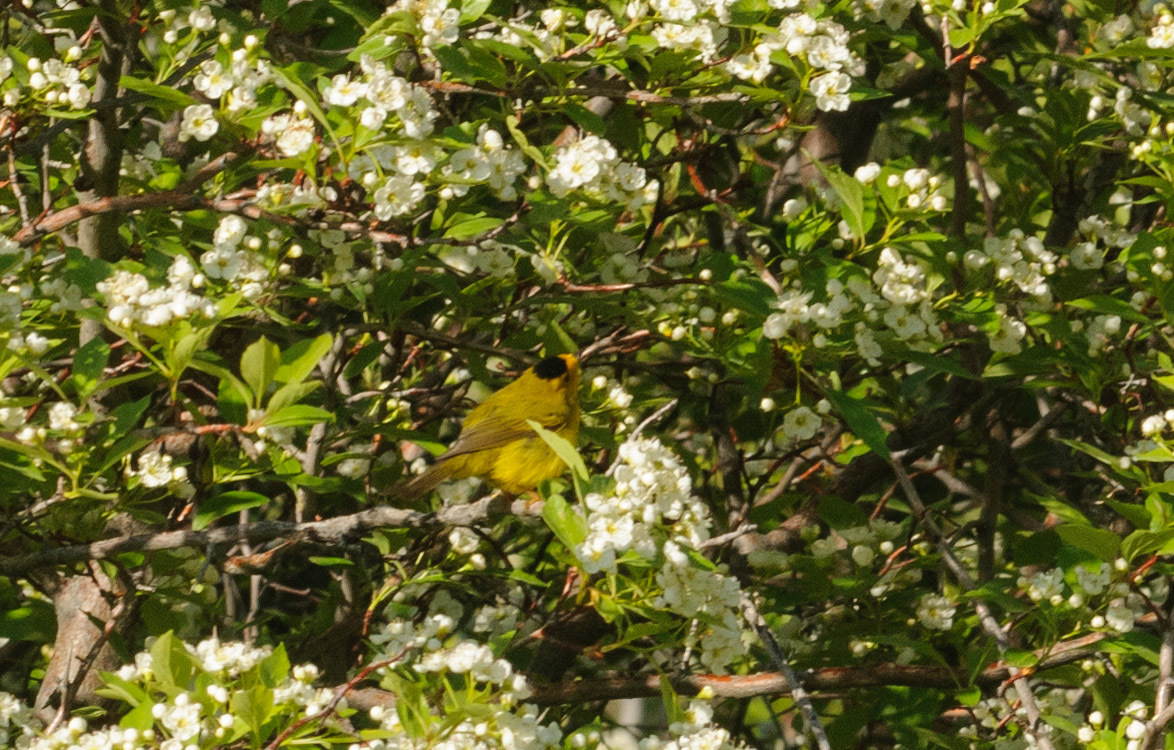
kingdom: Animalia
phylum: Chordata
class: Aves
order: Passeriformes
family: Parulidae
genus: Cardellina
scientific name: Cardellina pusilla
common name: Wilson's warbler
